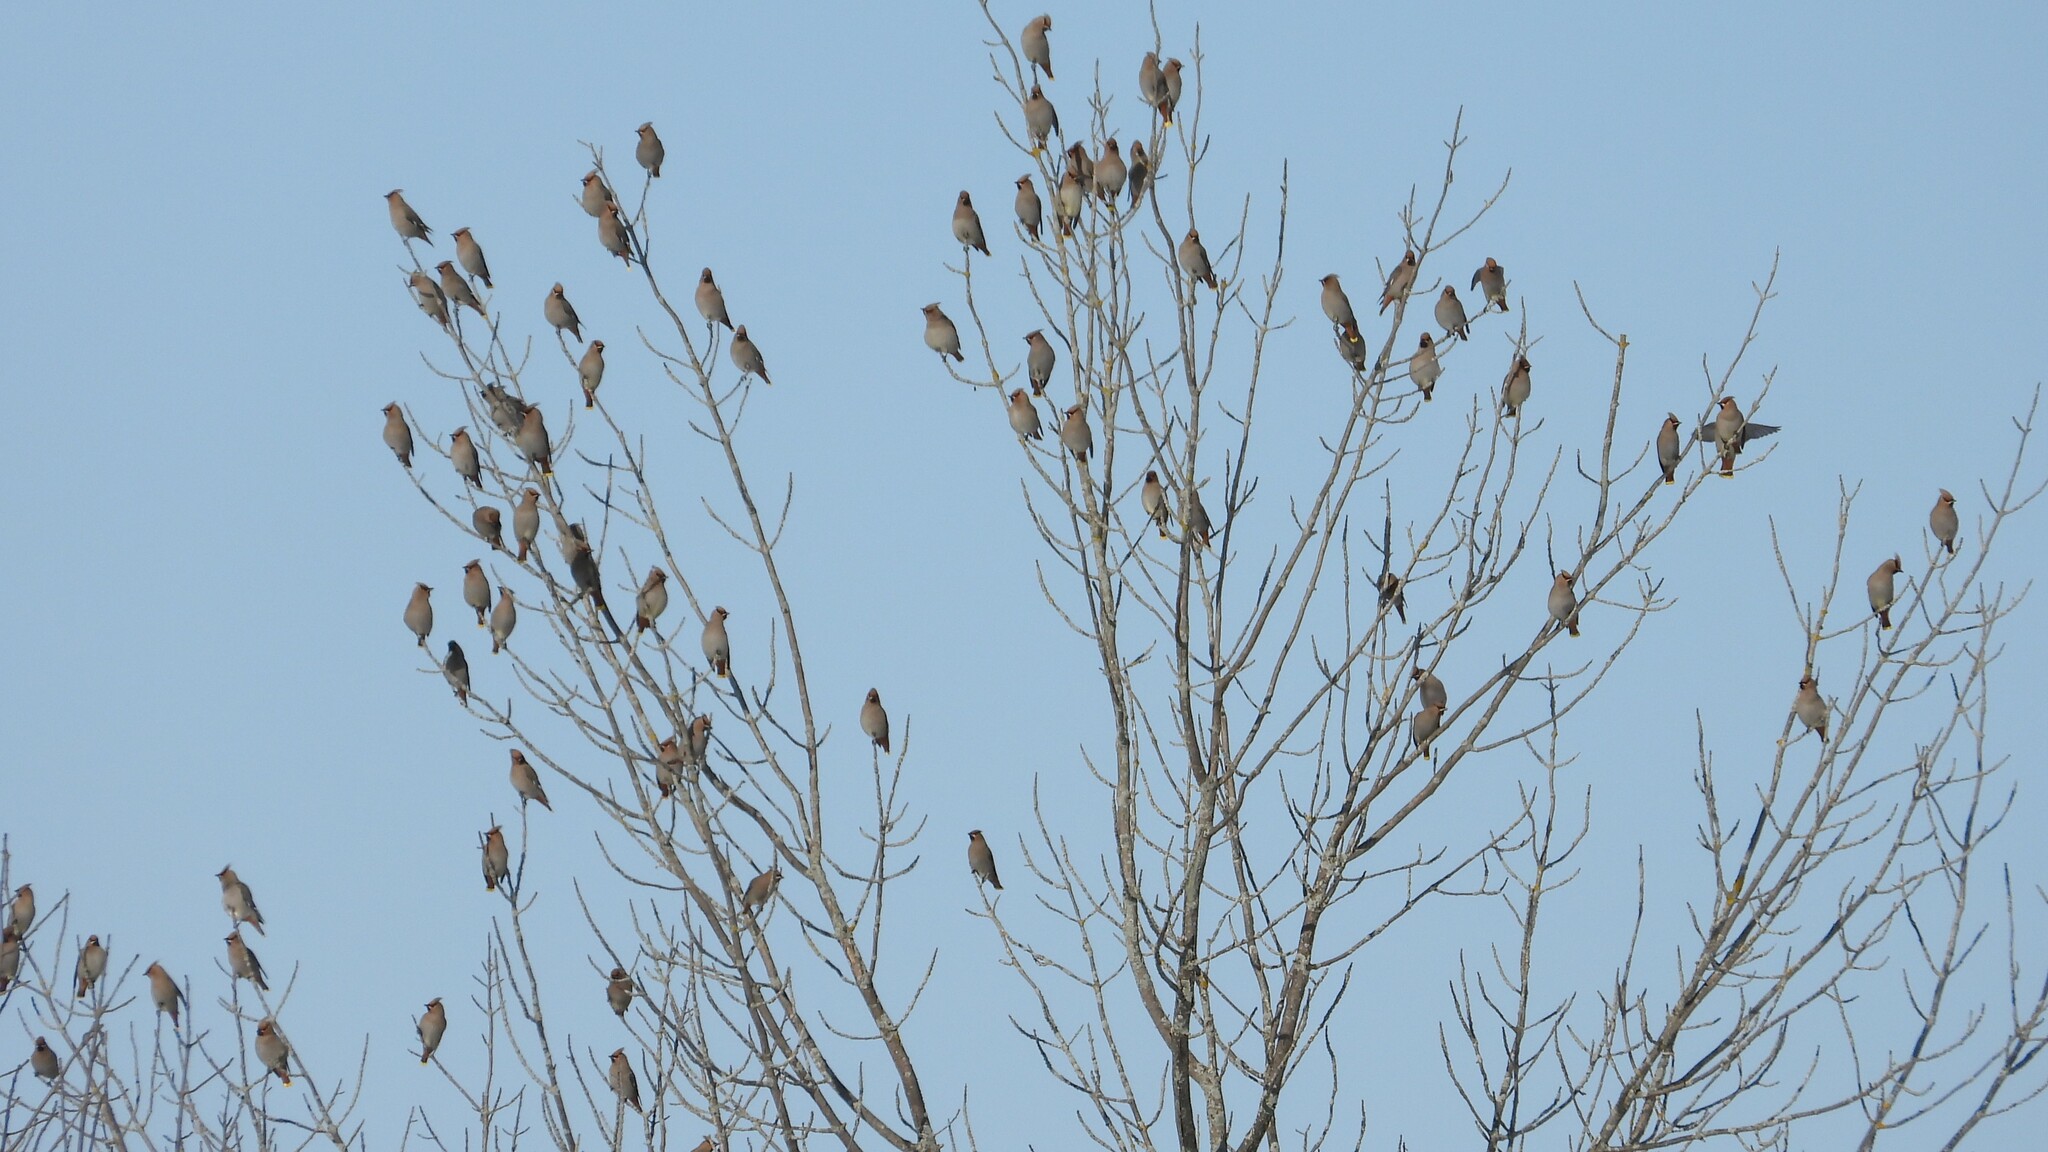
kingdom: Animalia
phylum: Chordata
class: Aves
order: Passeriformes
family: Bombycillidae
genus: Bombycilla
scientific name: Bombycilla garrulus
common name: Bohemian waxwing
